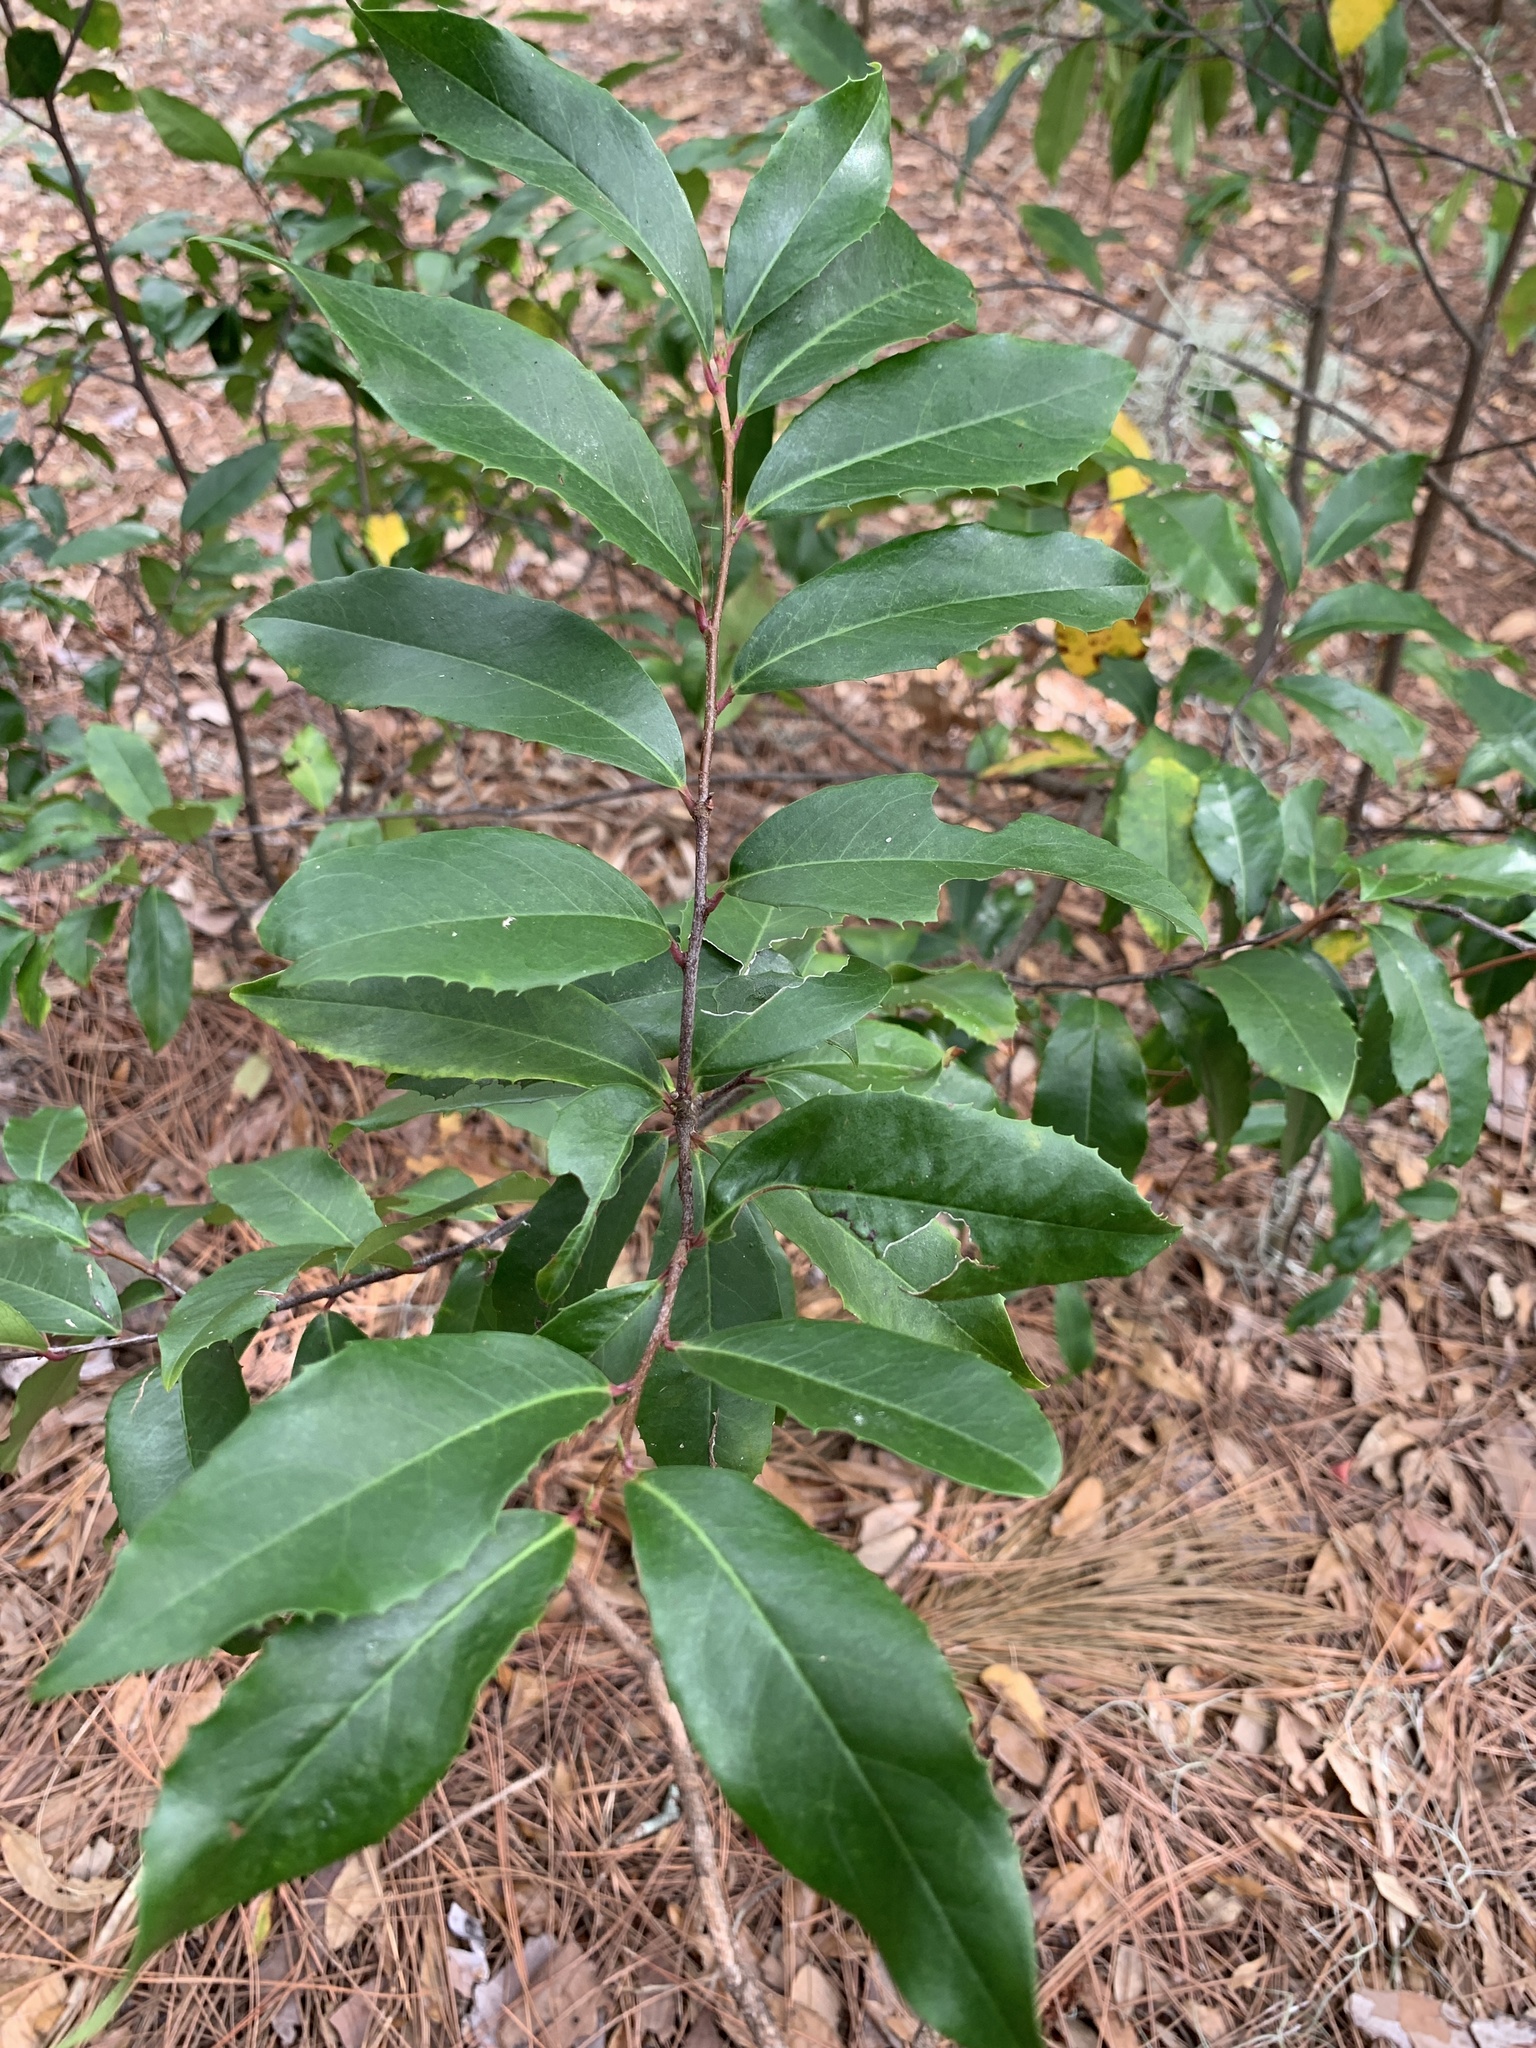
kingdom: Plantae
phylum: Tracheophyta
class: Magnoliopsida
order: Rosales
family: Rosaceae
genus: Prunus
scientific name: Prunus caroliniana
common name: Carolina laurel cherry
